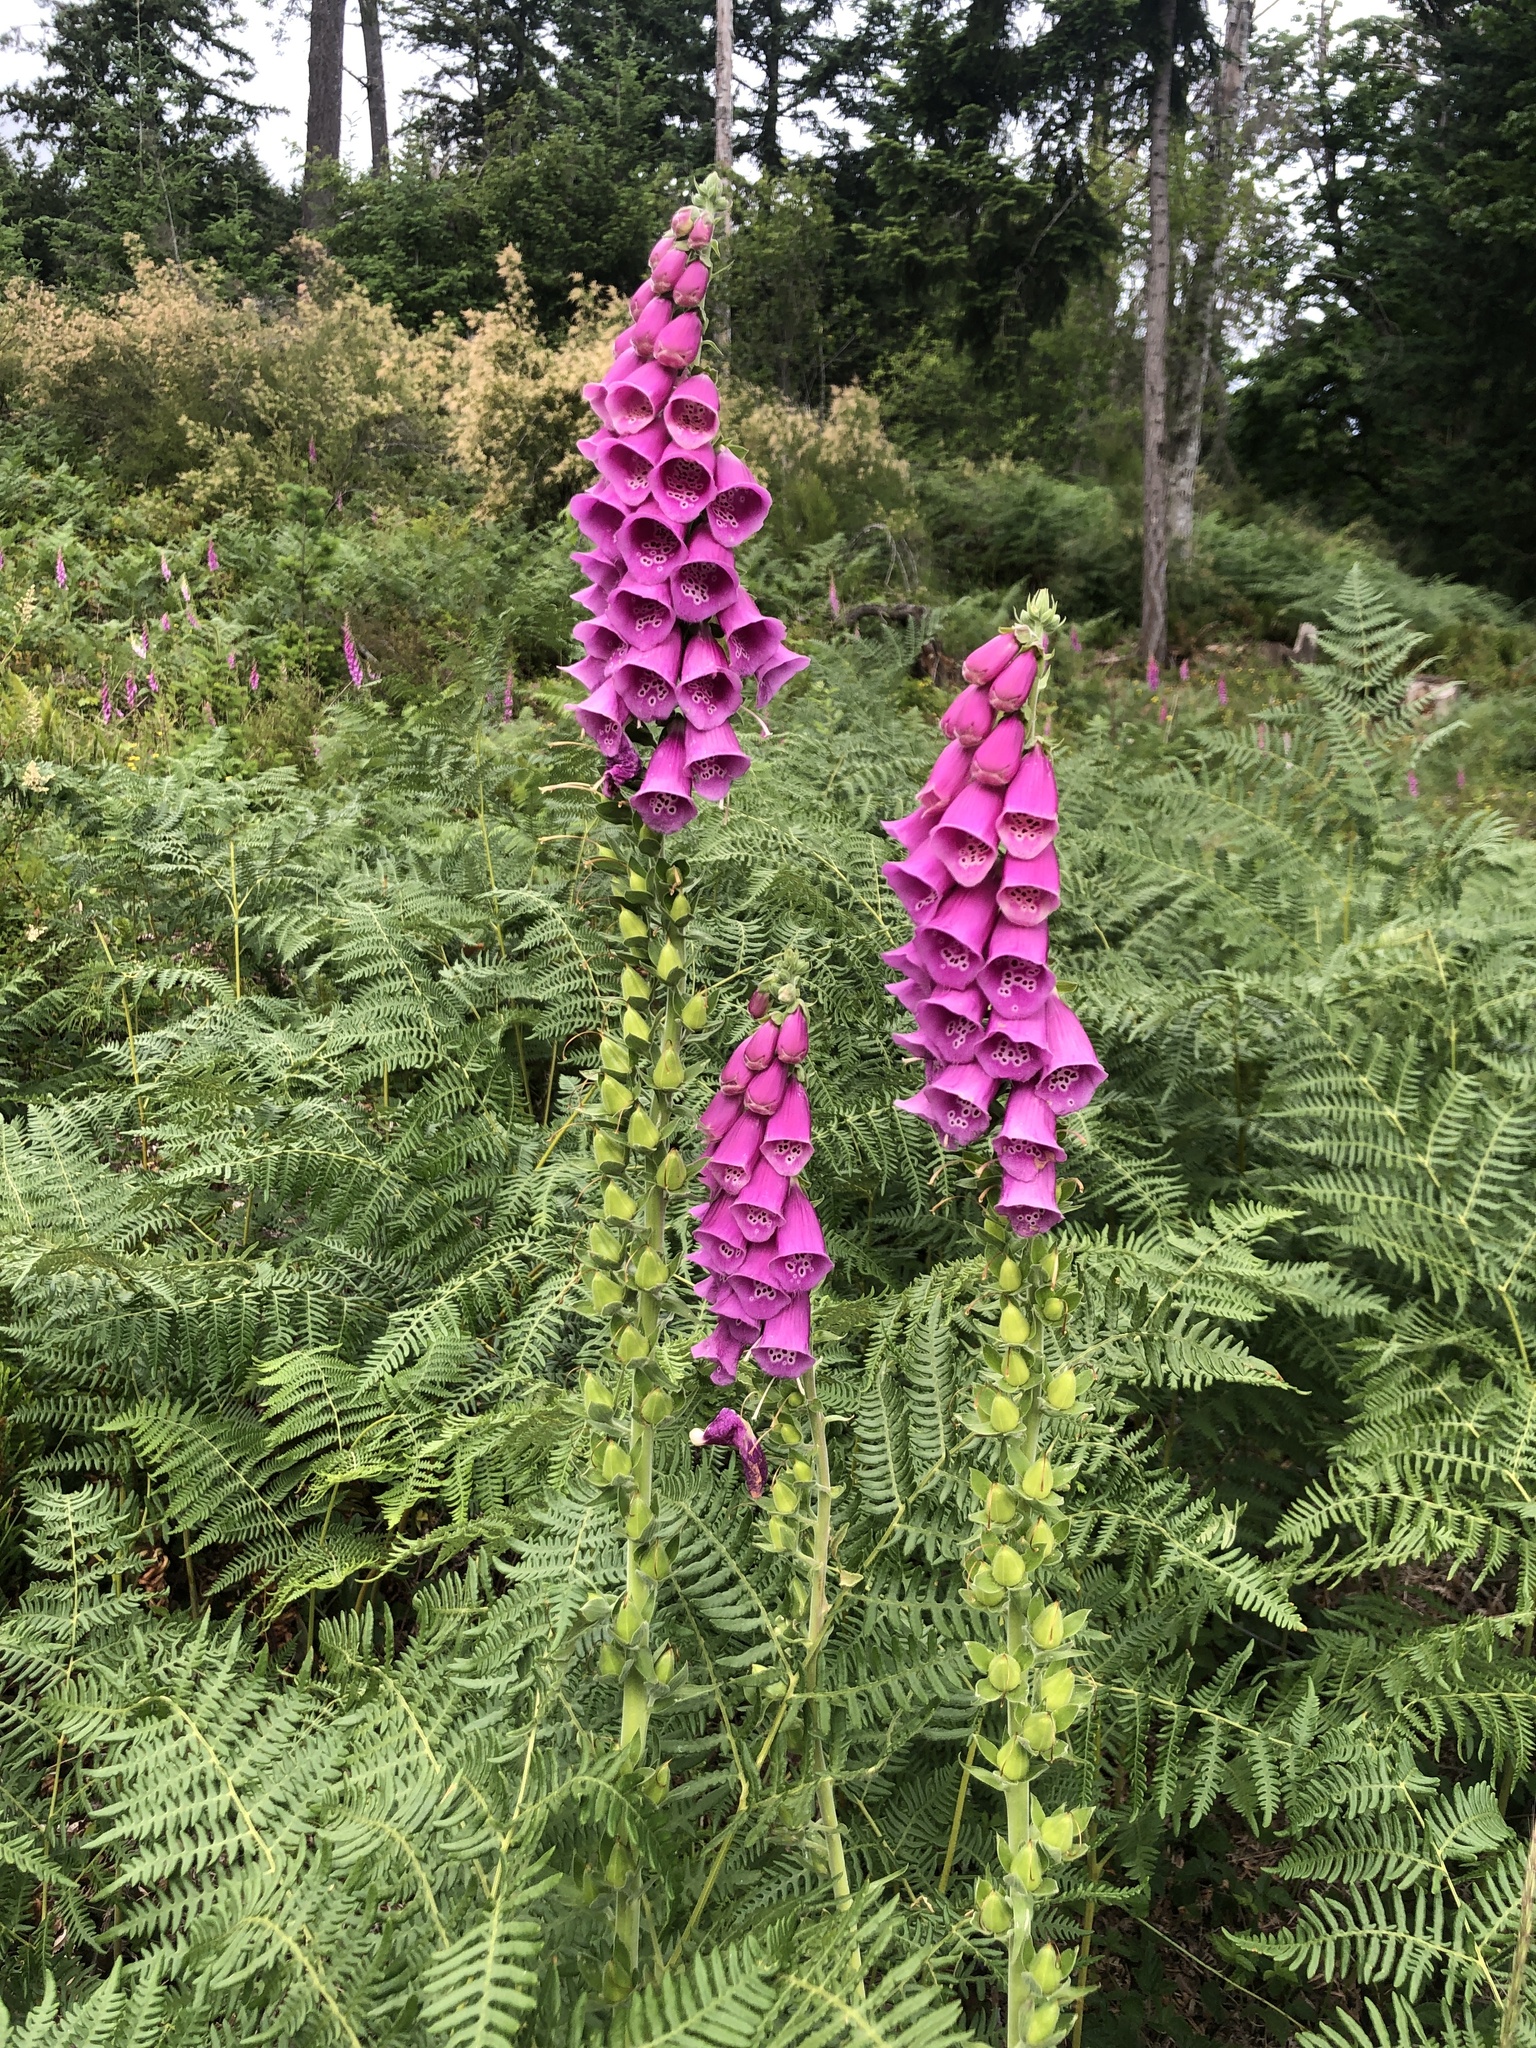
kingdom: Plantae
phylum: Tracheophyta
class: Magnoliopsida
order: Lamiales
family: Plantaginaceae
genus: Digitalis
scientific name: Digitalis purpurea
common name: Foxglove
